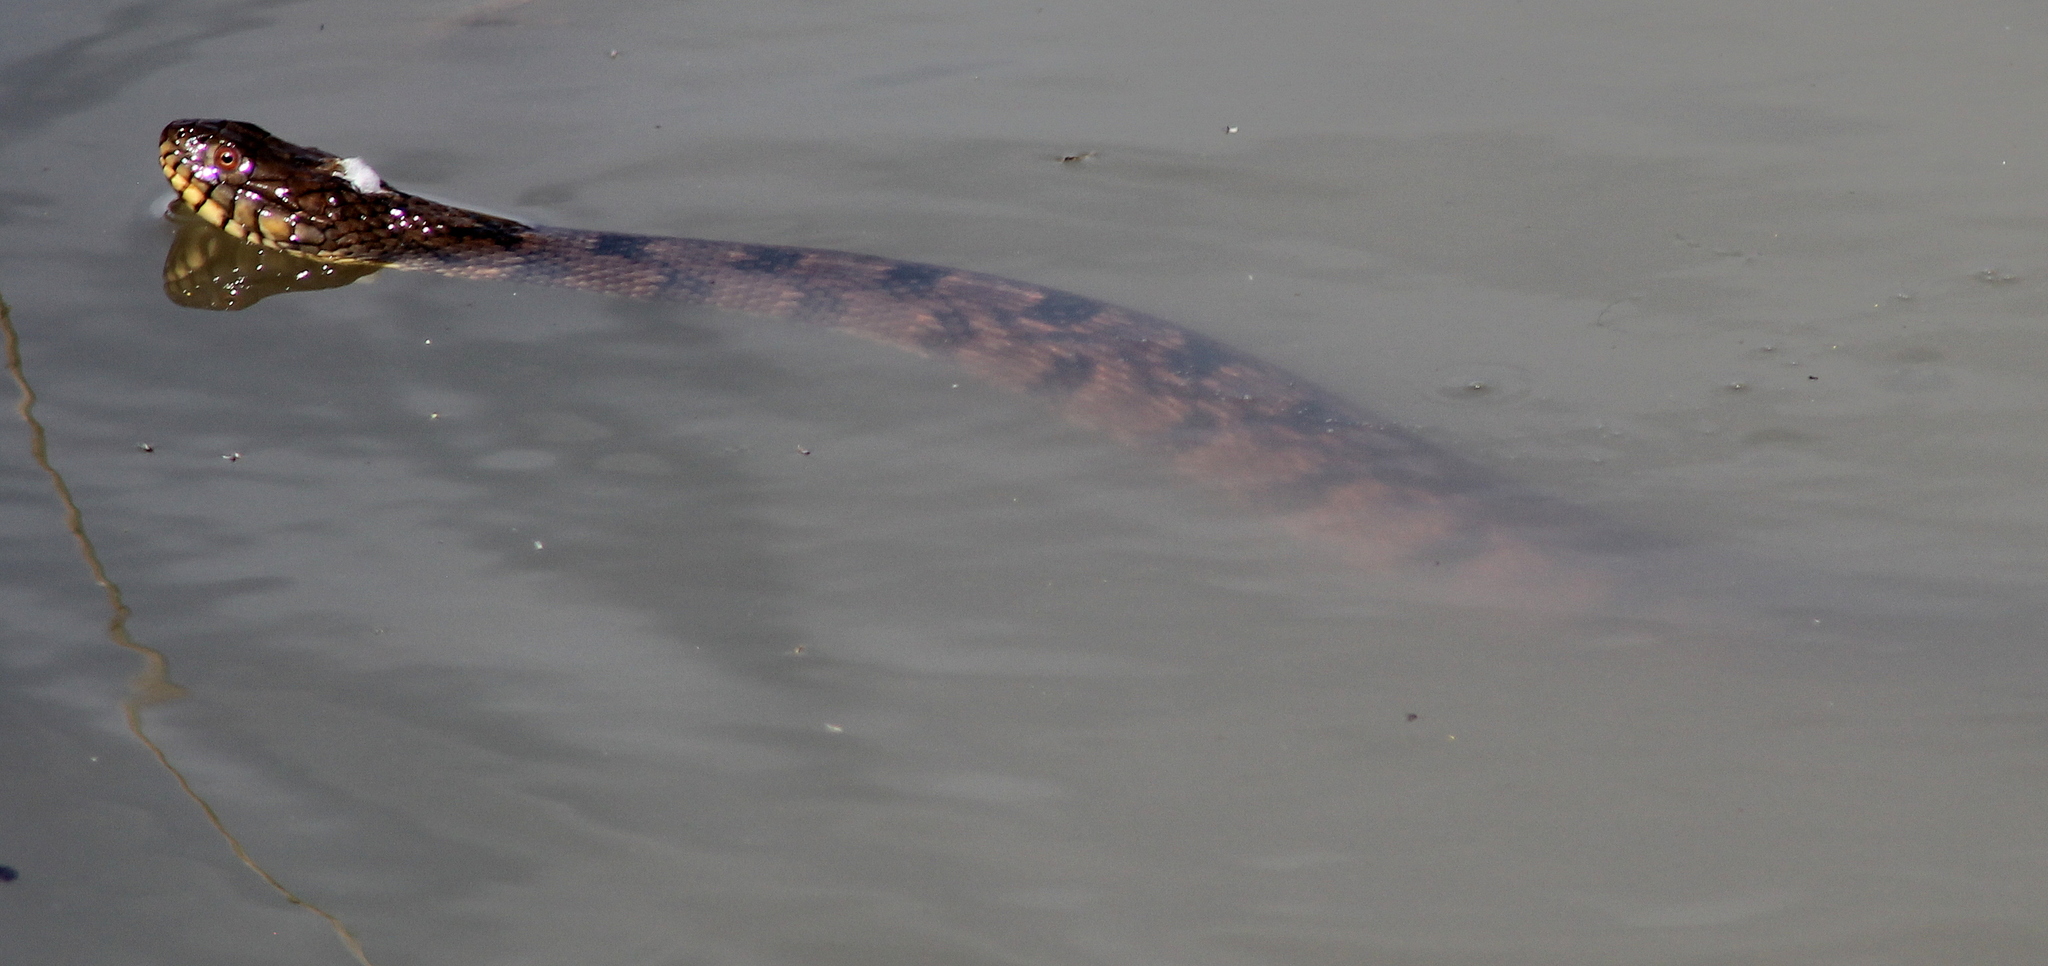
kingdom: Animalia
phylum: Chordata
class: Squamata
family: Colubridae
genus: Nerodia
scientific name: Nerodia rhombifer
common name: Diamondback water snake
